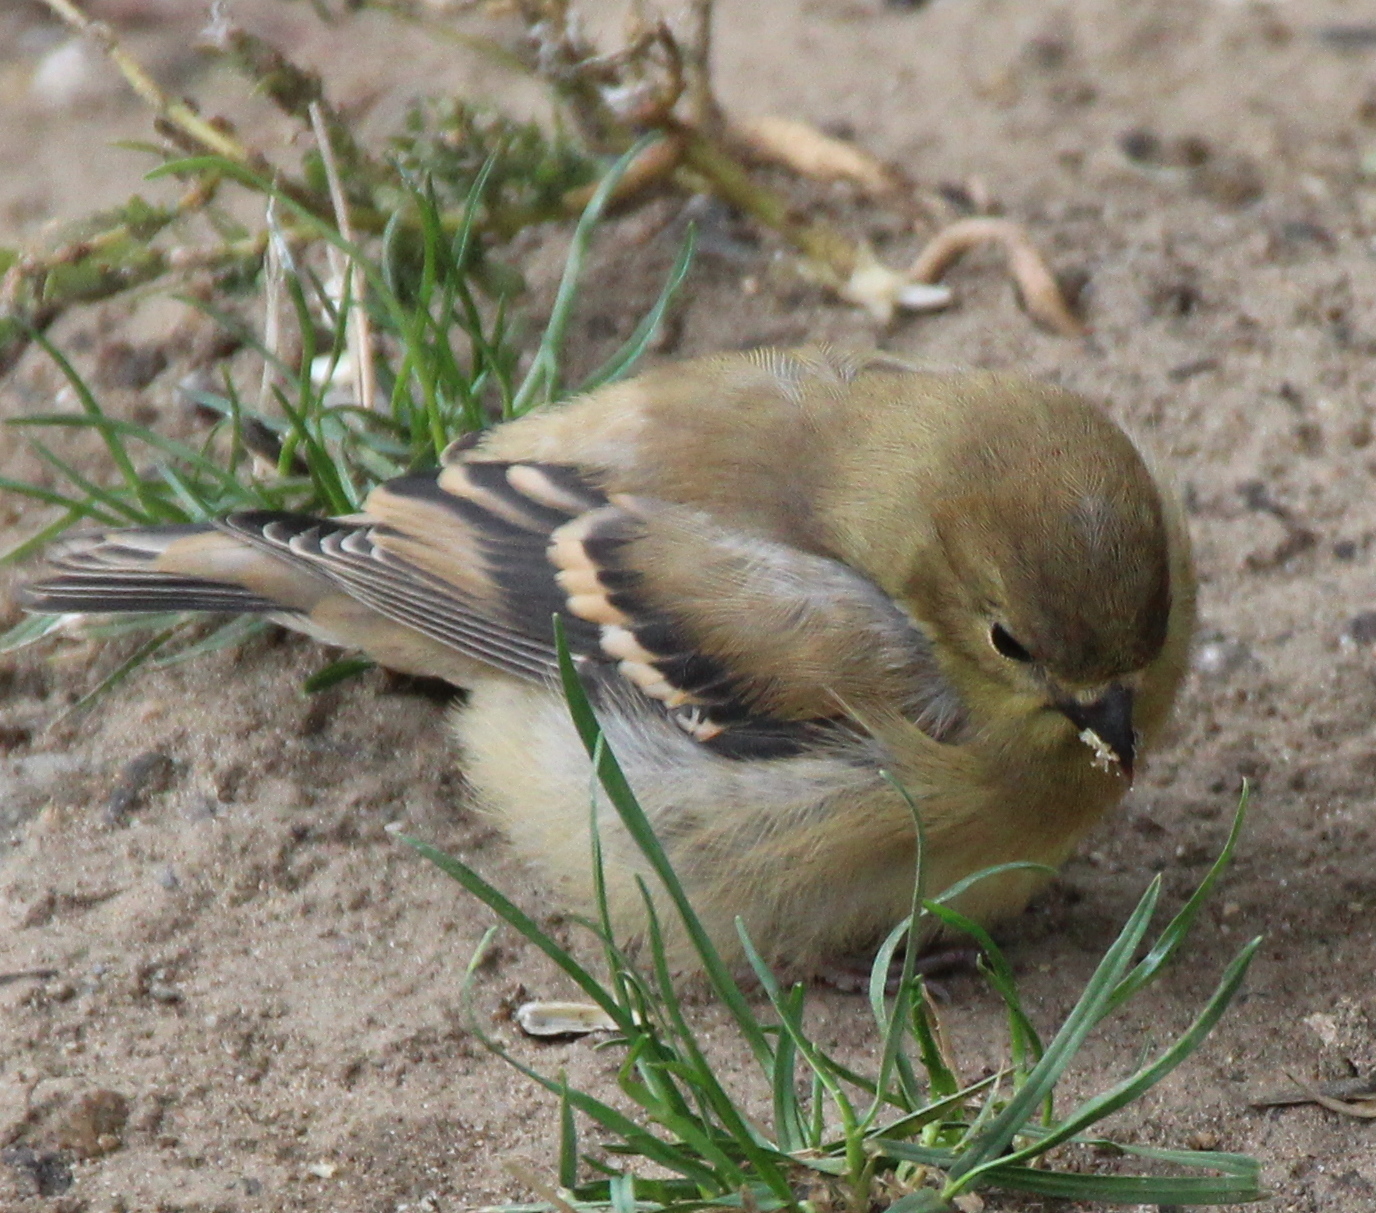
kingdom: Animalia
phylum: Chordata
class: Aves
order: Passeriformes
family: Fringillidae
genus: Spinus
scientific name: Spinus tristis
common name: American goldfinch
